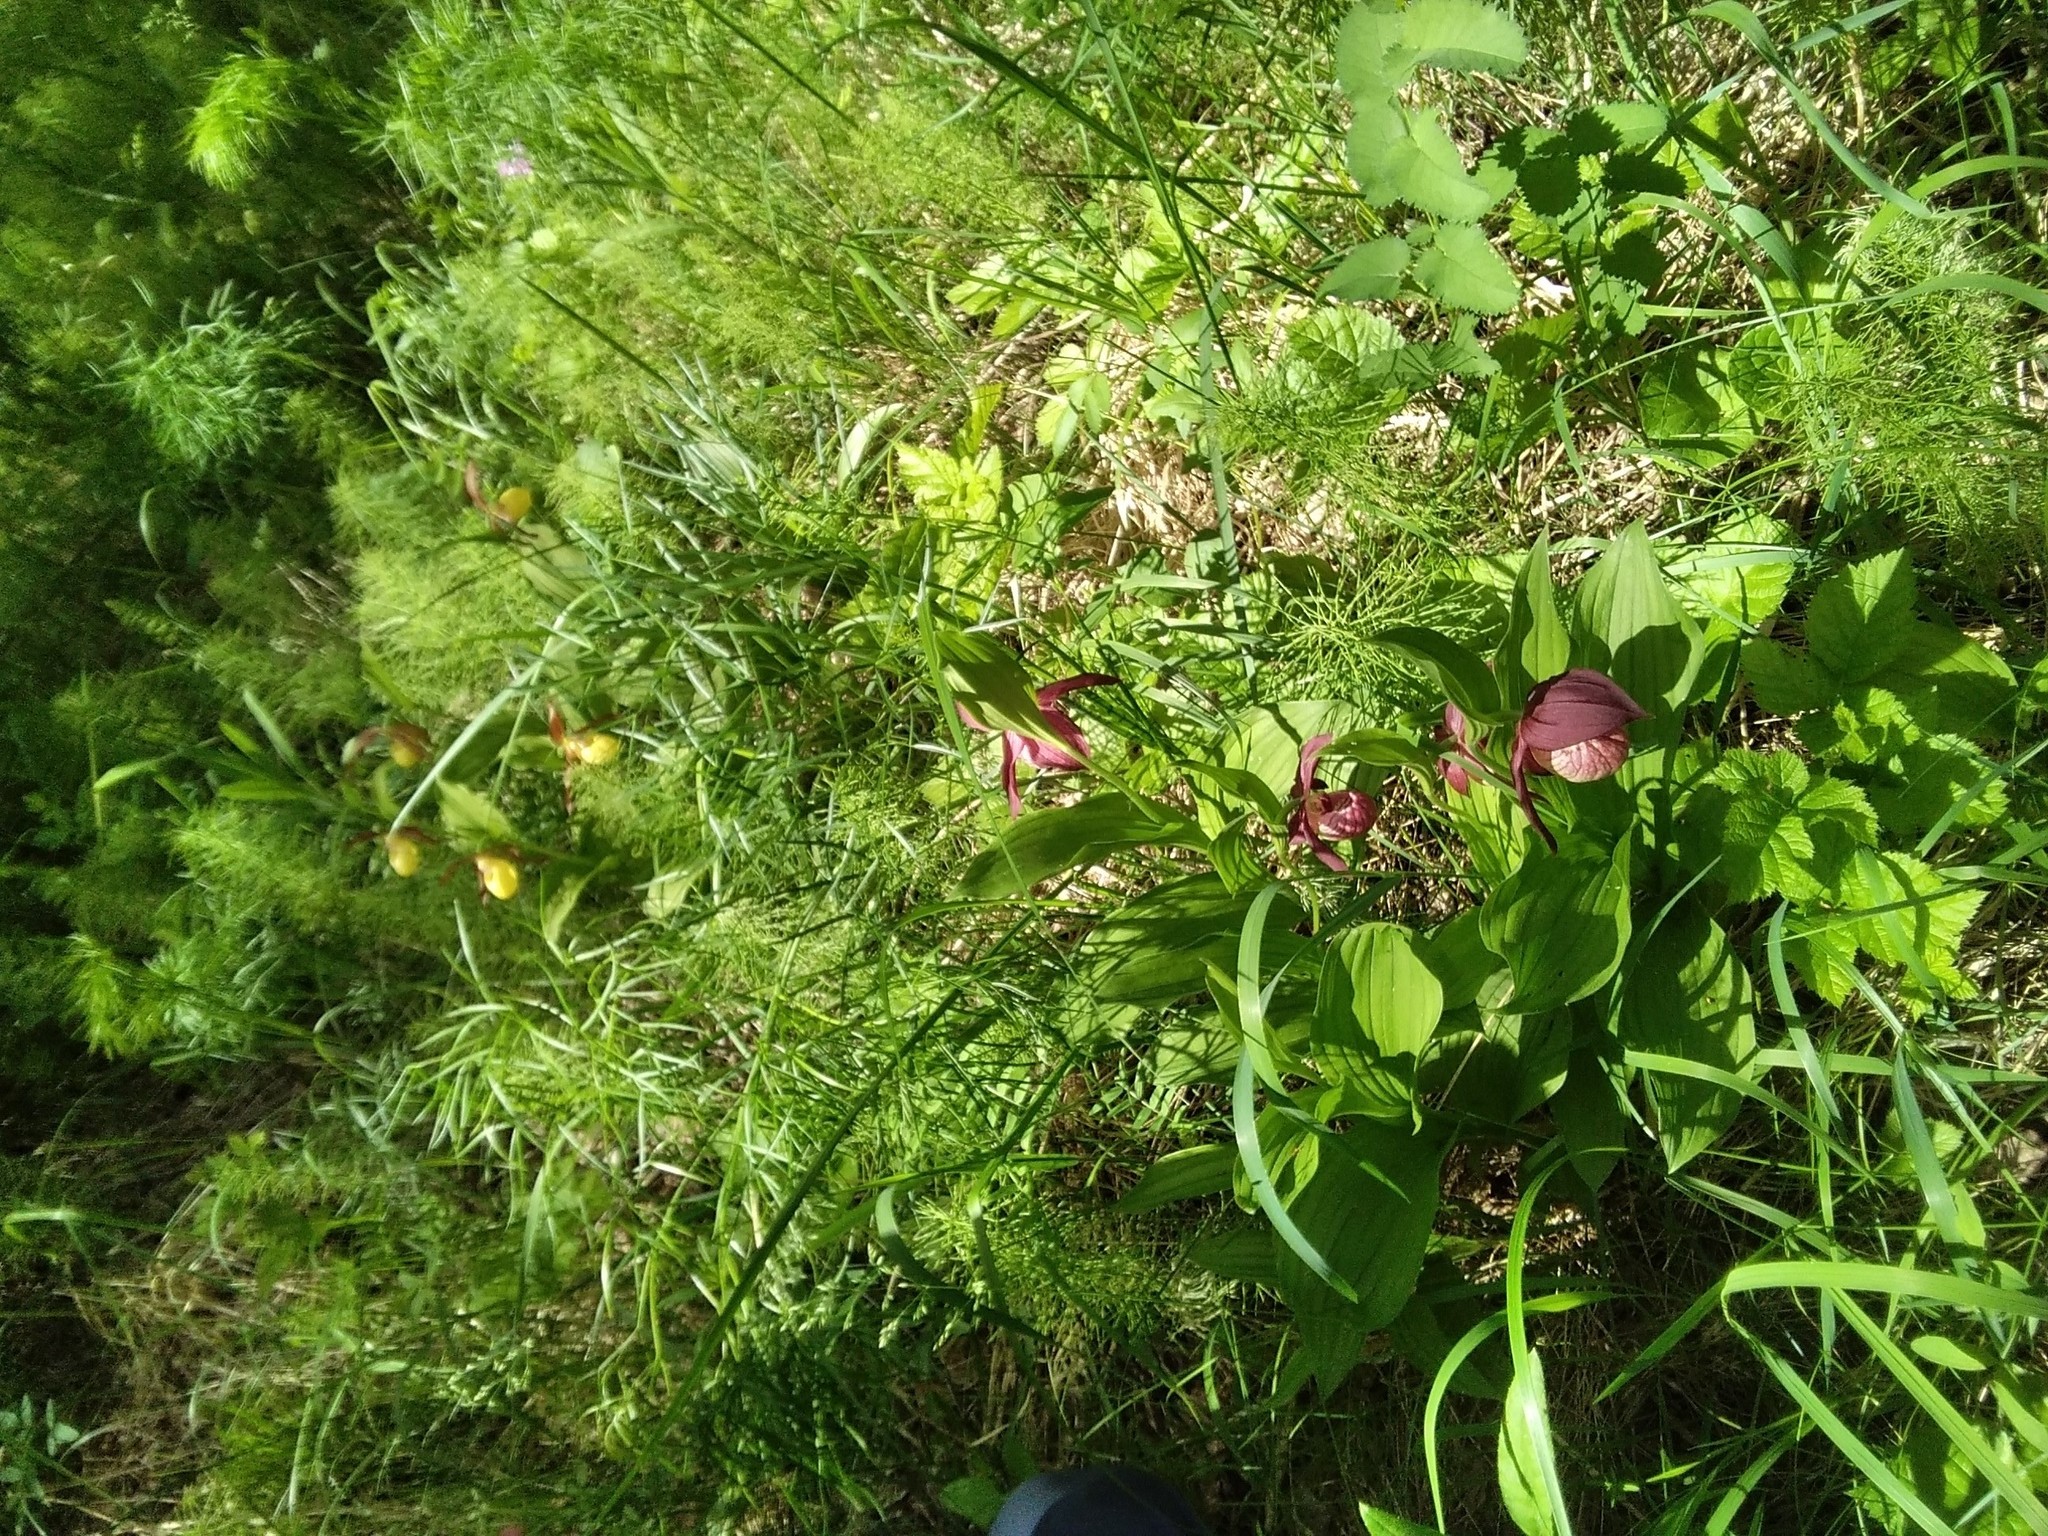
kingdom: Plantae
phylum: Tracheophyta
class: Liliopsida
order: Asparagales
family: Orchidaceae
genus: Cypripedium
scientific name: Cypripedium ventricosum
